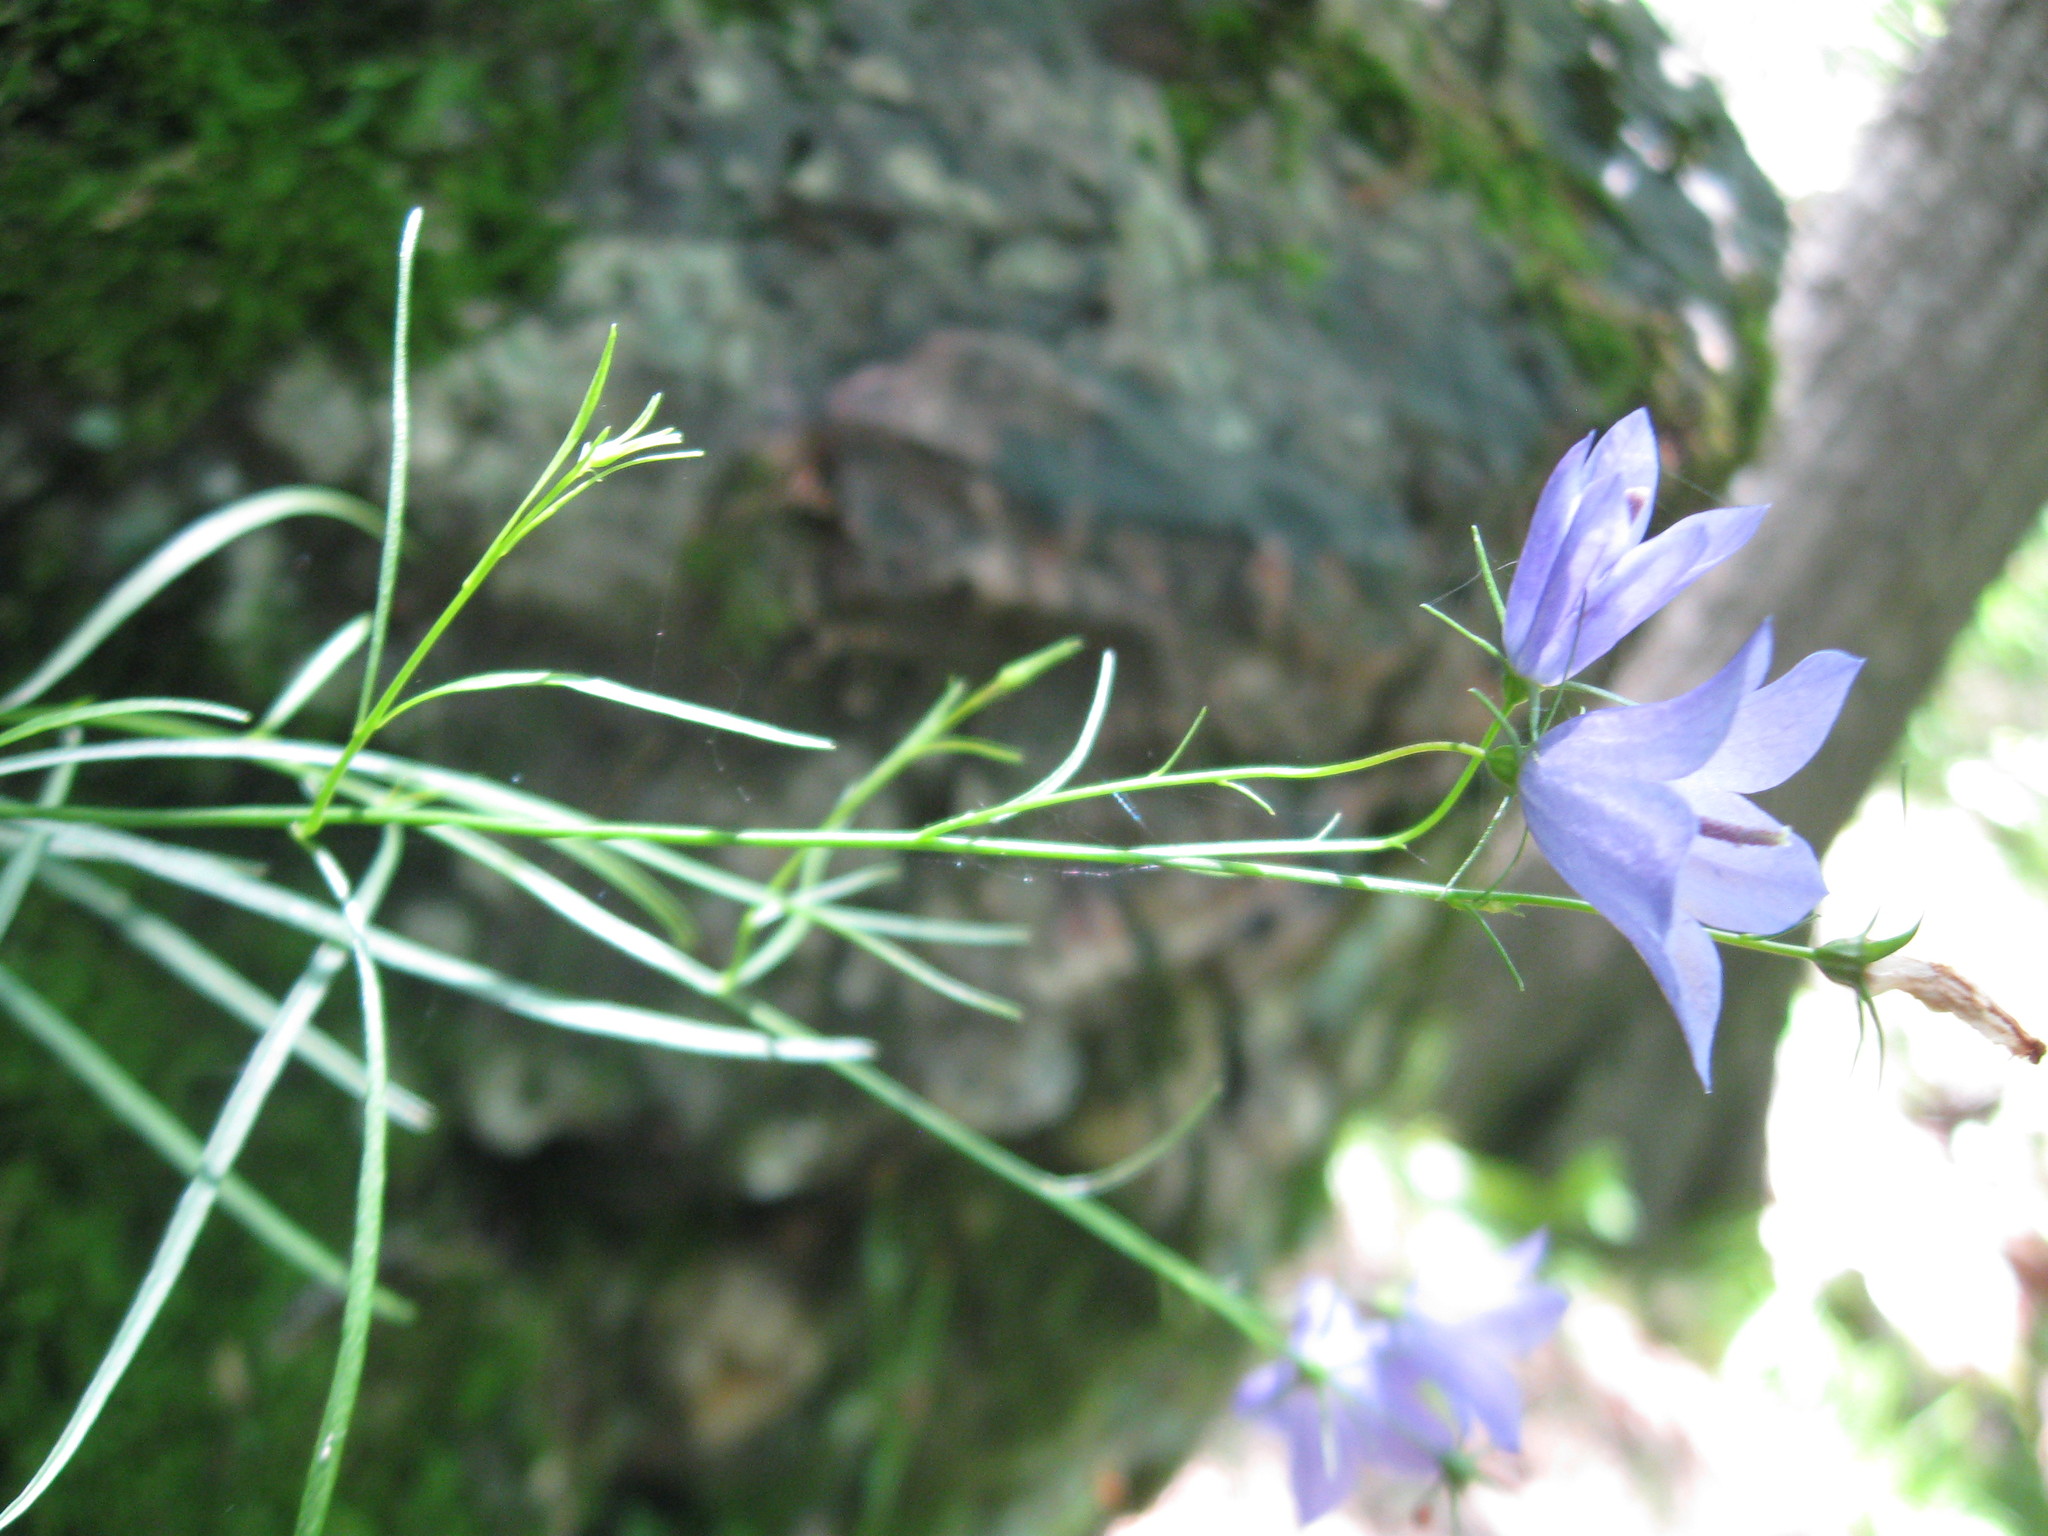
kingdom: Plantae
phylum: Tracheophyta
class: Magnoliopsida
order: Asterales
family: Campanulaceae
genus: Campanula
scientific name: Campanula intercedens
